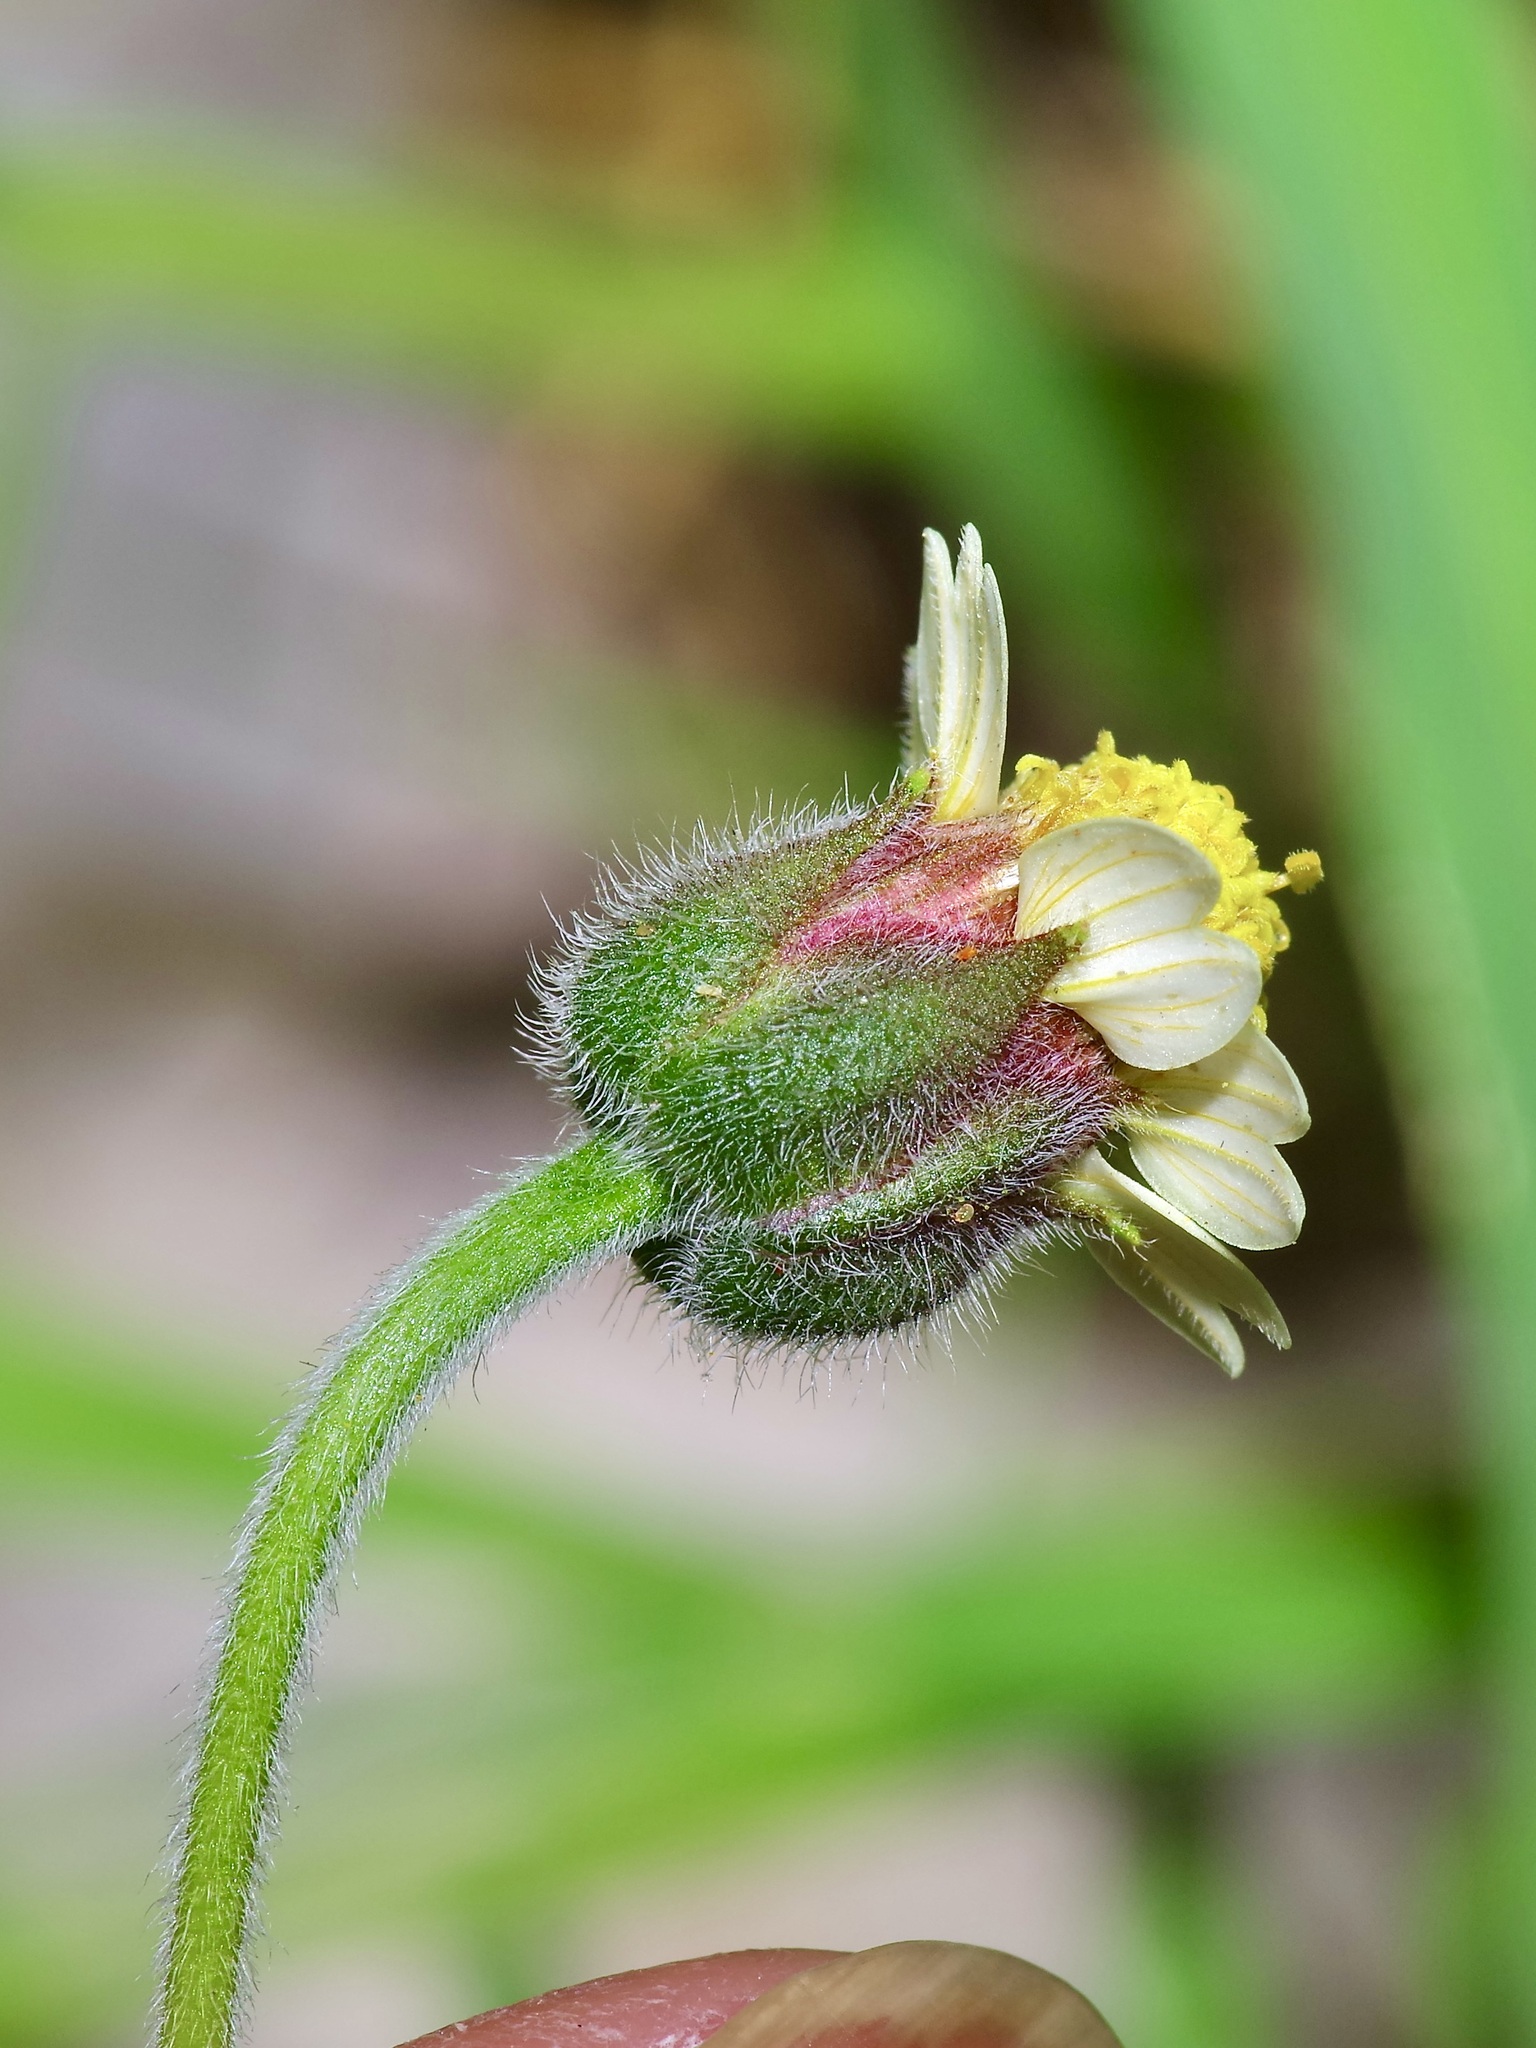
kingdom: Plantae
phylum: Tracheophyta
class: Magnoliopsida
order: Asterales
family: Asteraceae
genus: Tridax
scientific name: Tridax procumbens
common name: Coatbuttons
